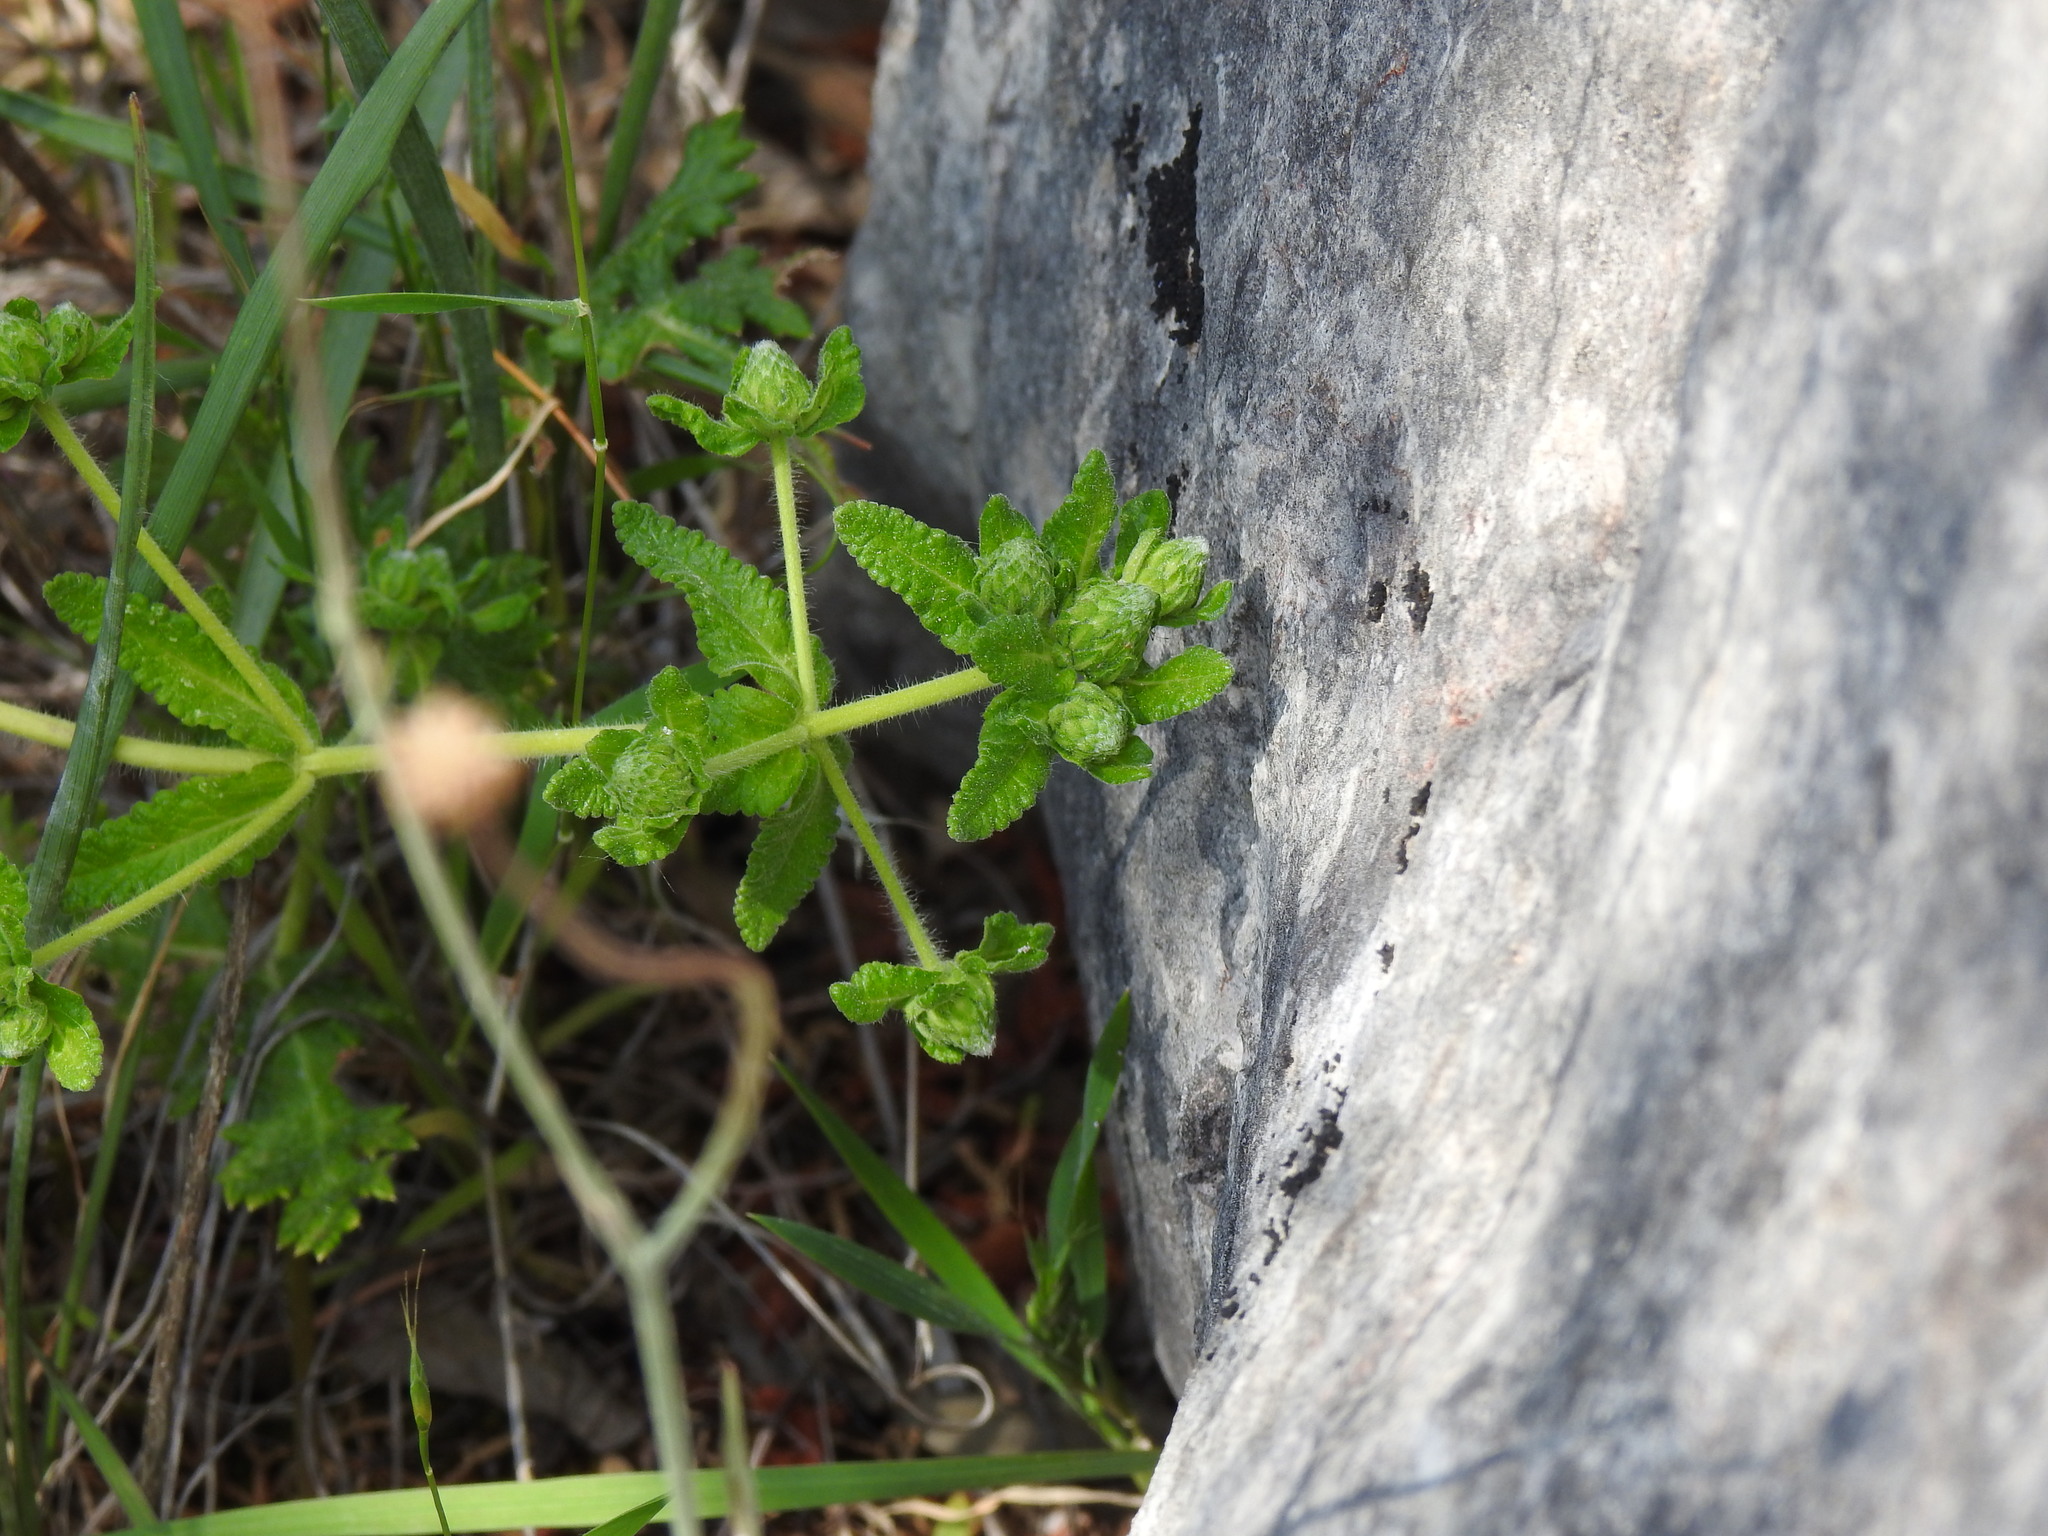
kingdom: Plantae
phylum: Tracheophyta
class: Magnoliopsida
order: Lamiales
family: Lamiaceae
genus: Teucrium
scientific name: Teucrium haenseleri
